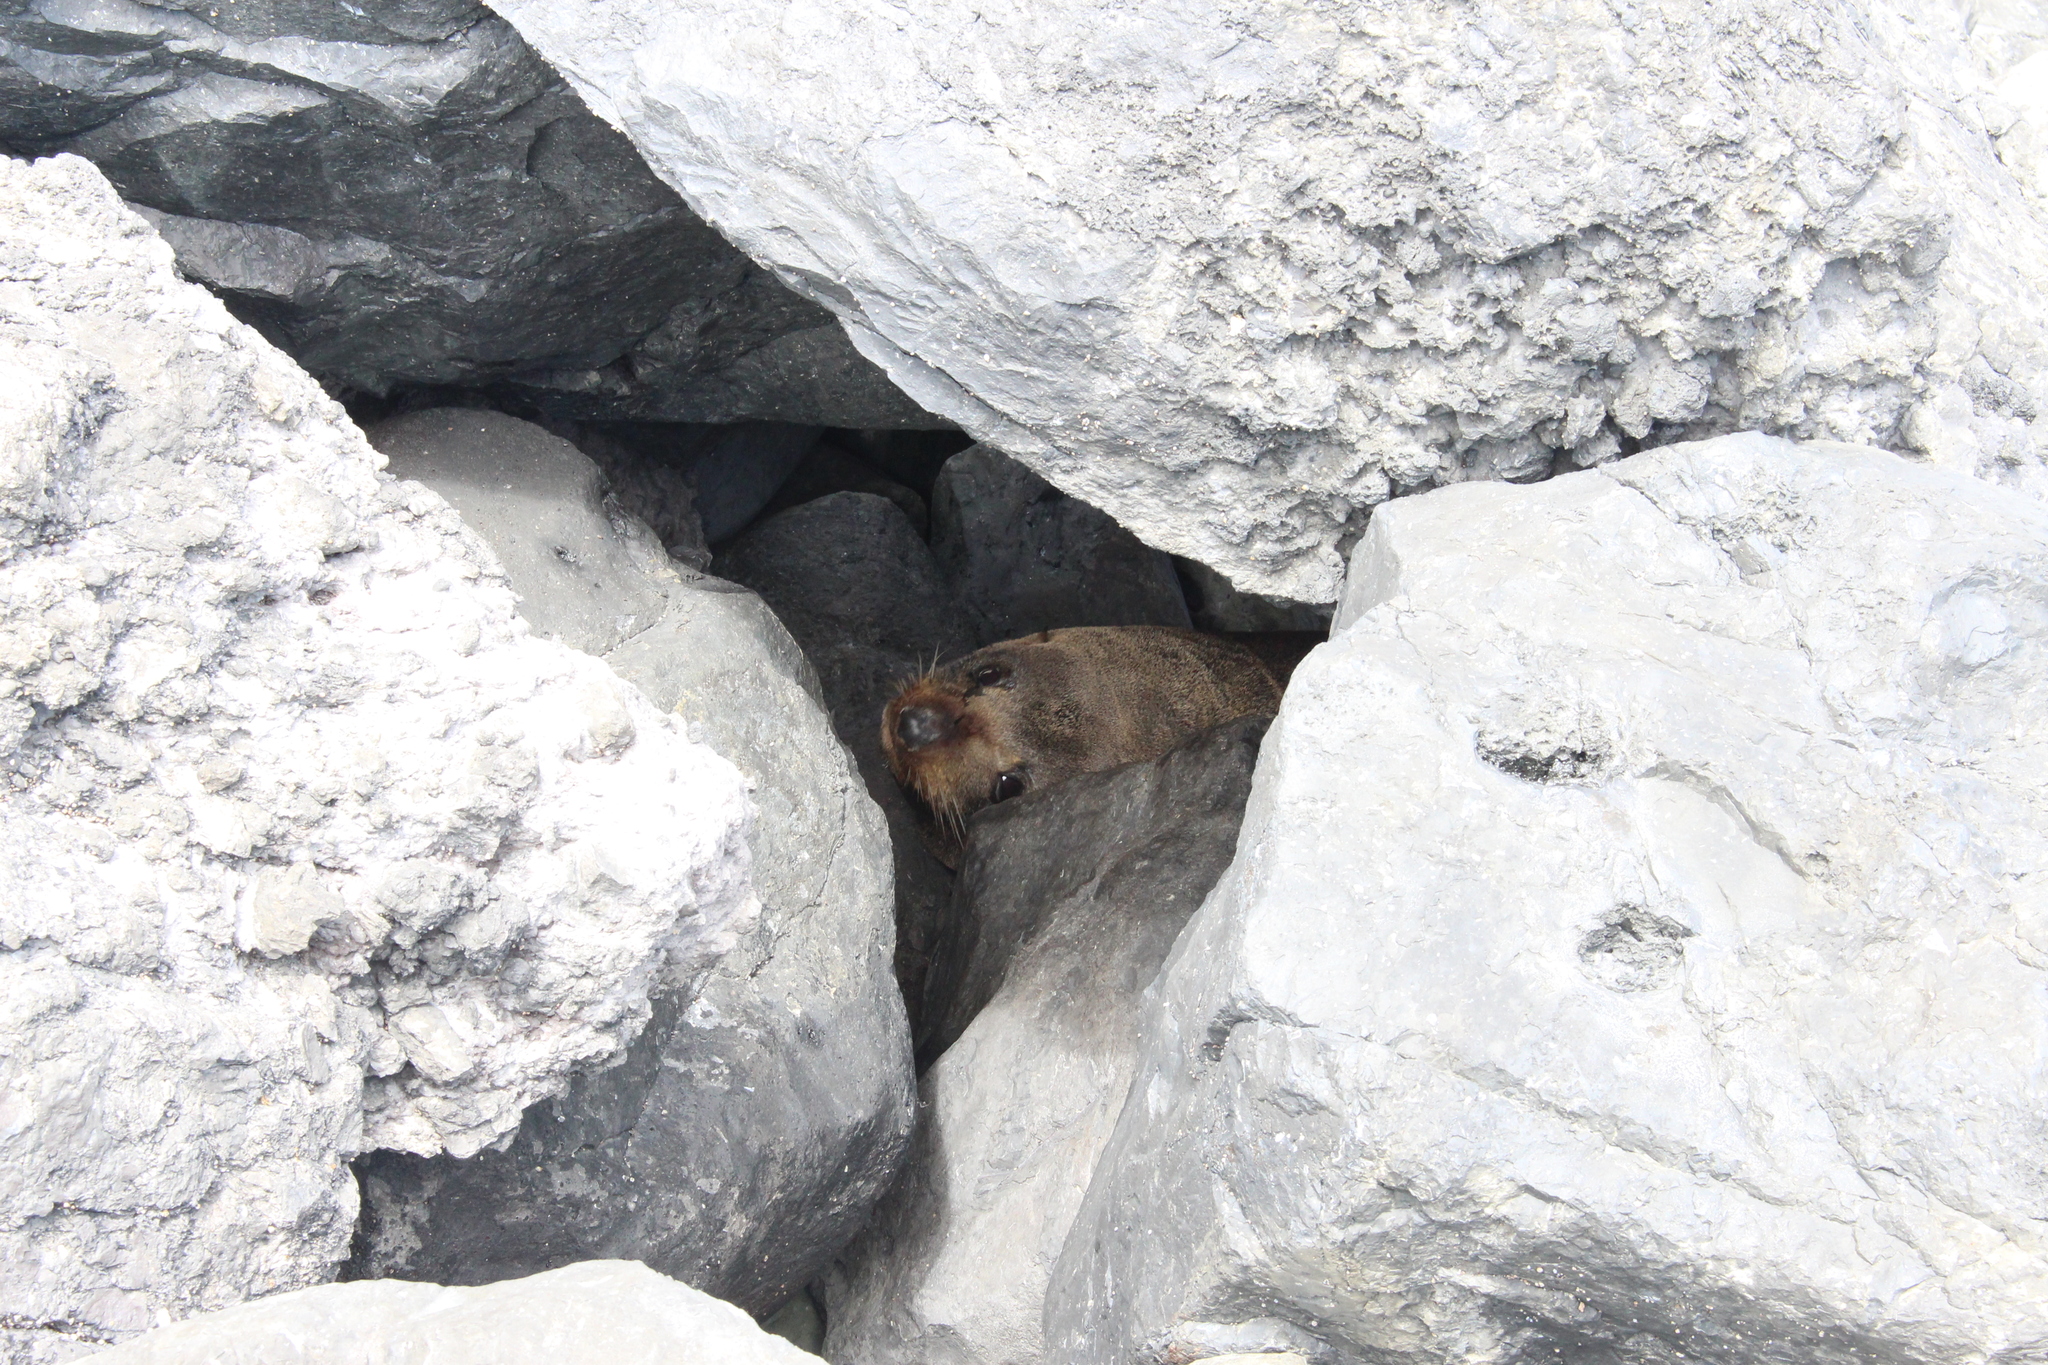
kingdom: Animalia
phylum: Chordata
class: Mammalia
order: Carnivora
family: Otariidae
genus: Arctocephalus
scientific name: Arctocephalus forsteri
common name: New zealand fur seal
